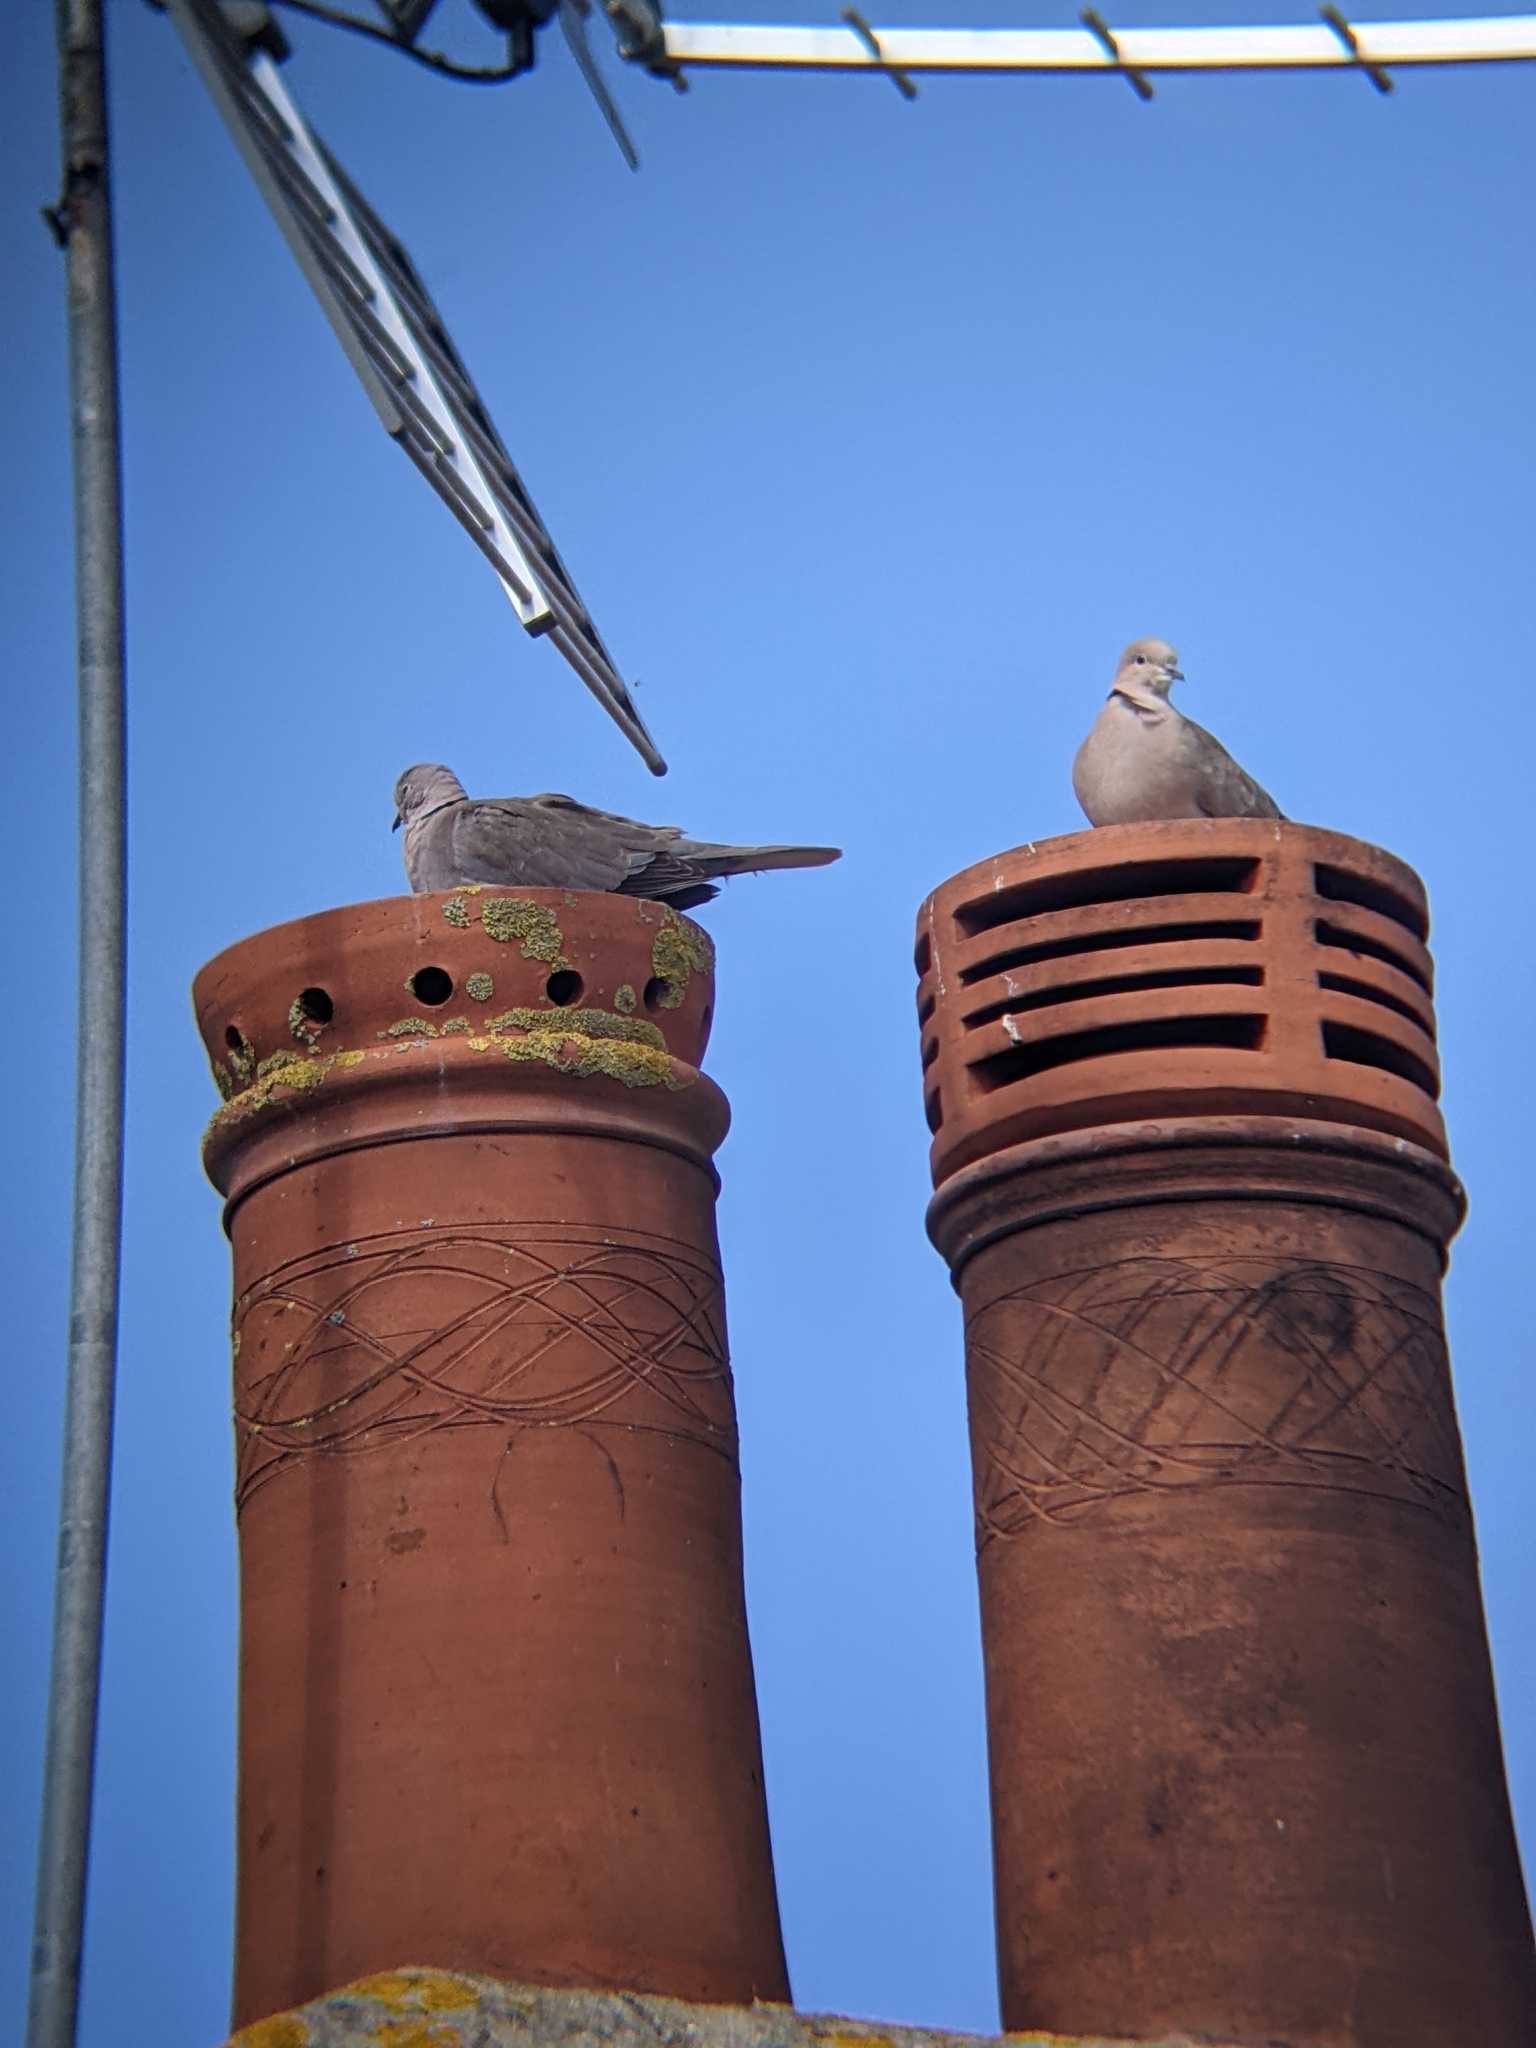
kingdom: Animalia
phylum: Chordata
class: Aves
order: Columbiformes
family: Columbidae
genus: Streptopelia
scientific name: Streptopelia decaocto
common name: Eurasian collared dove
